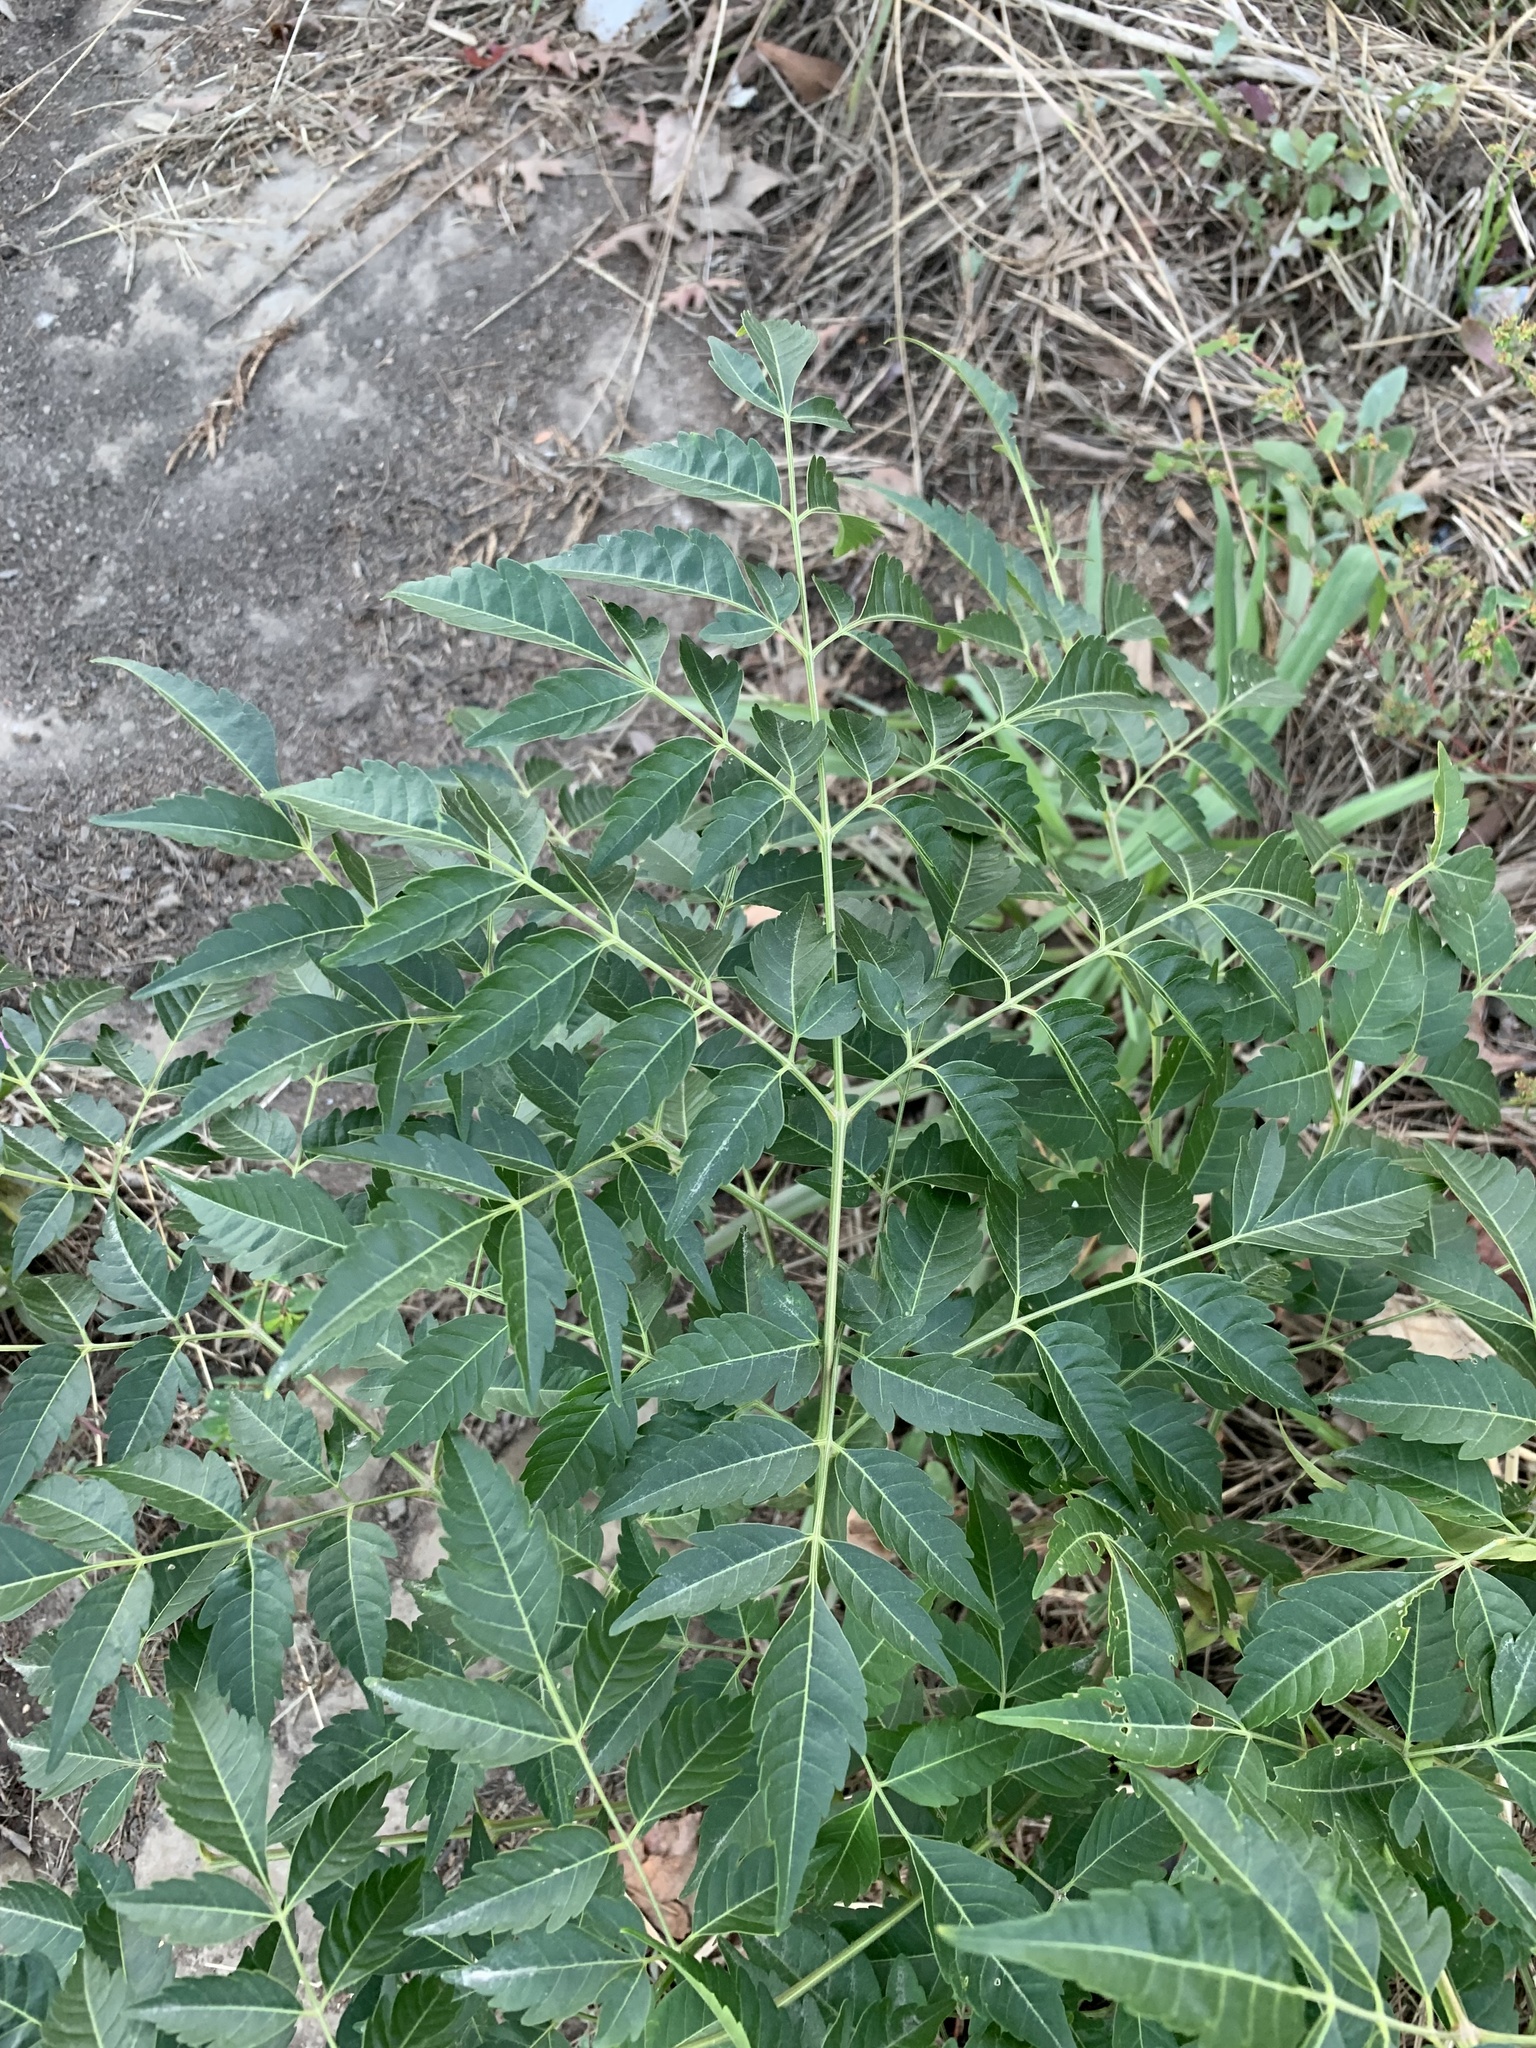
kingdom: Plantae
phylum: Tracheophyta
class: Magnoliopsida
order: Sapindales
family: Meliaceae
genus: Melia
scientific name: Melia azedarach
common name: Chinaberrytree
